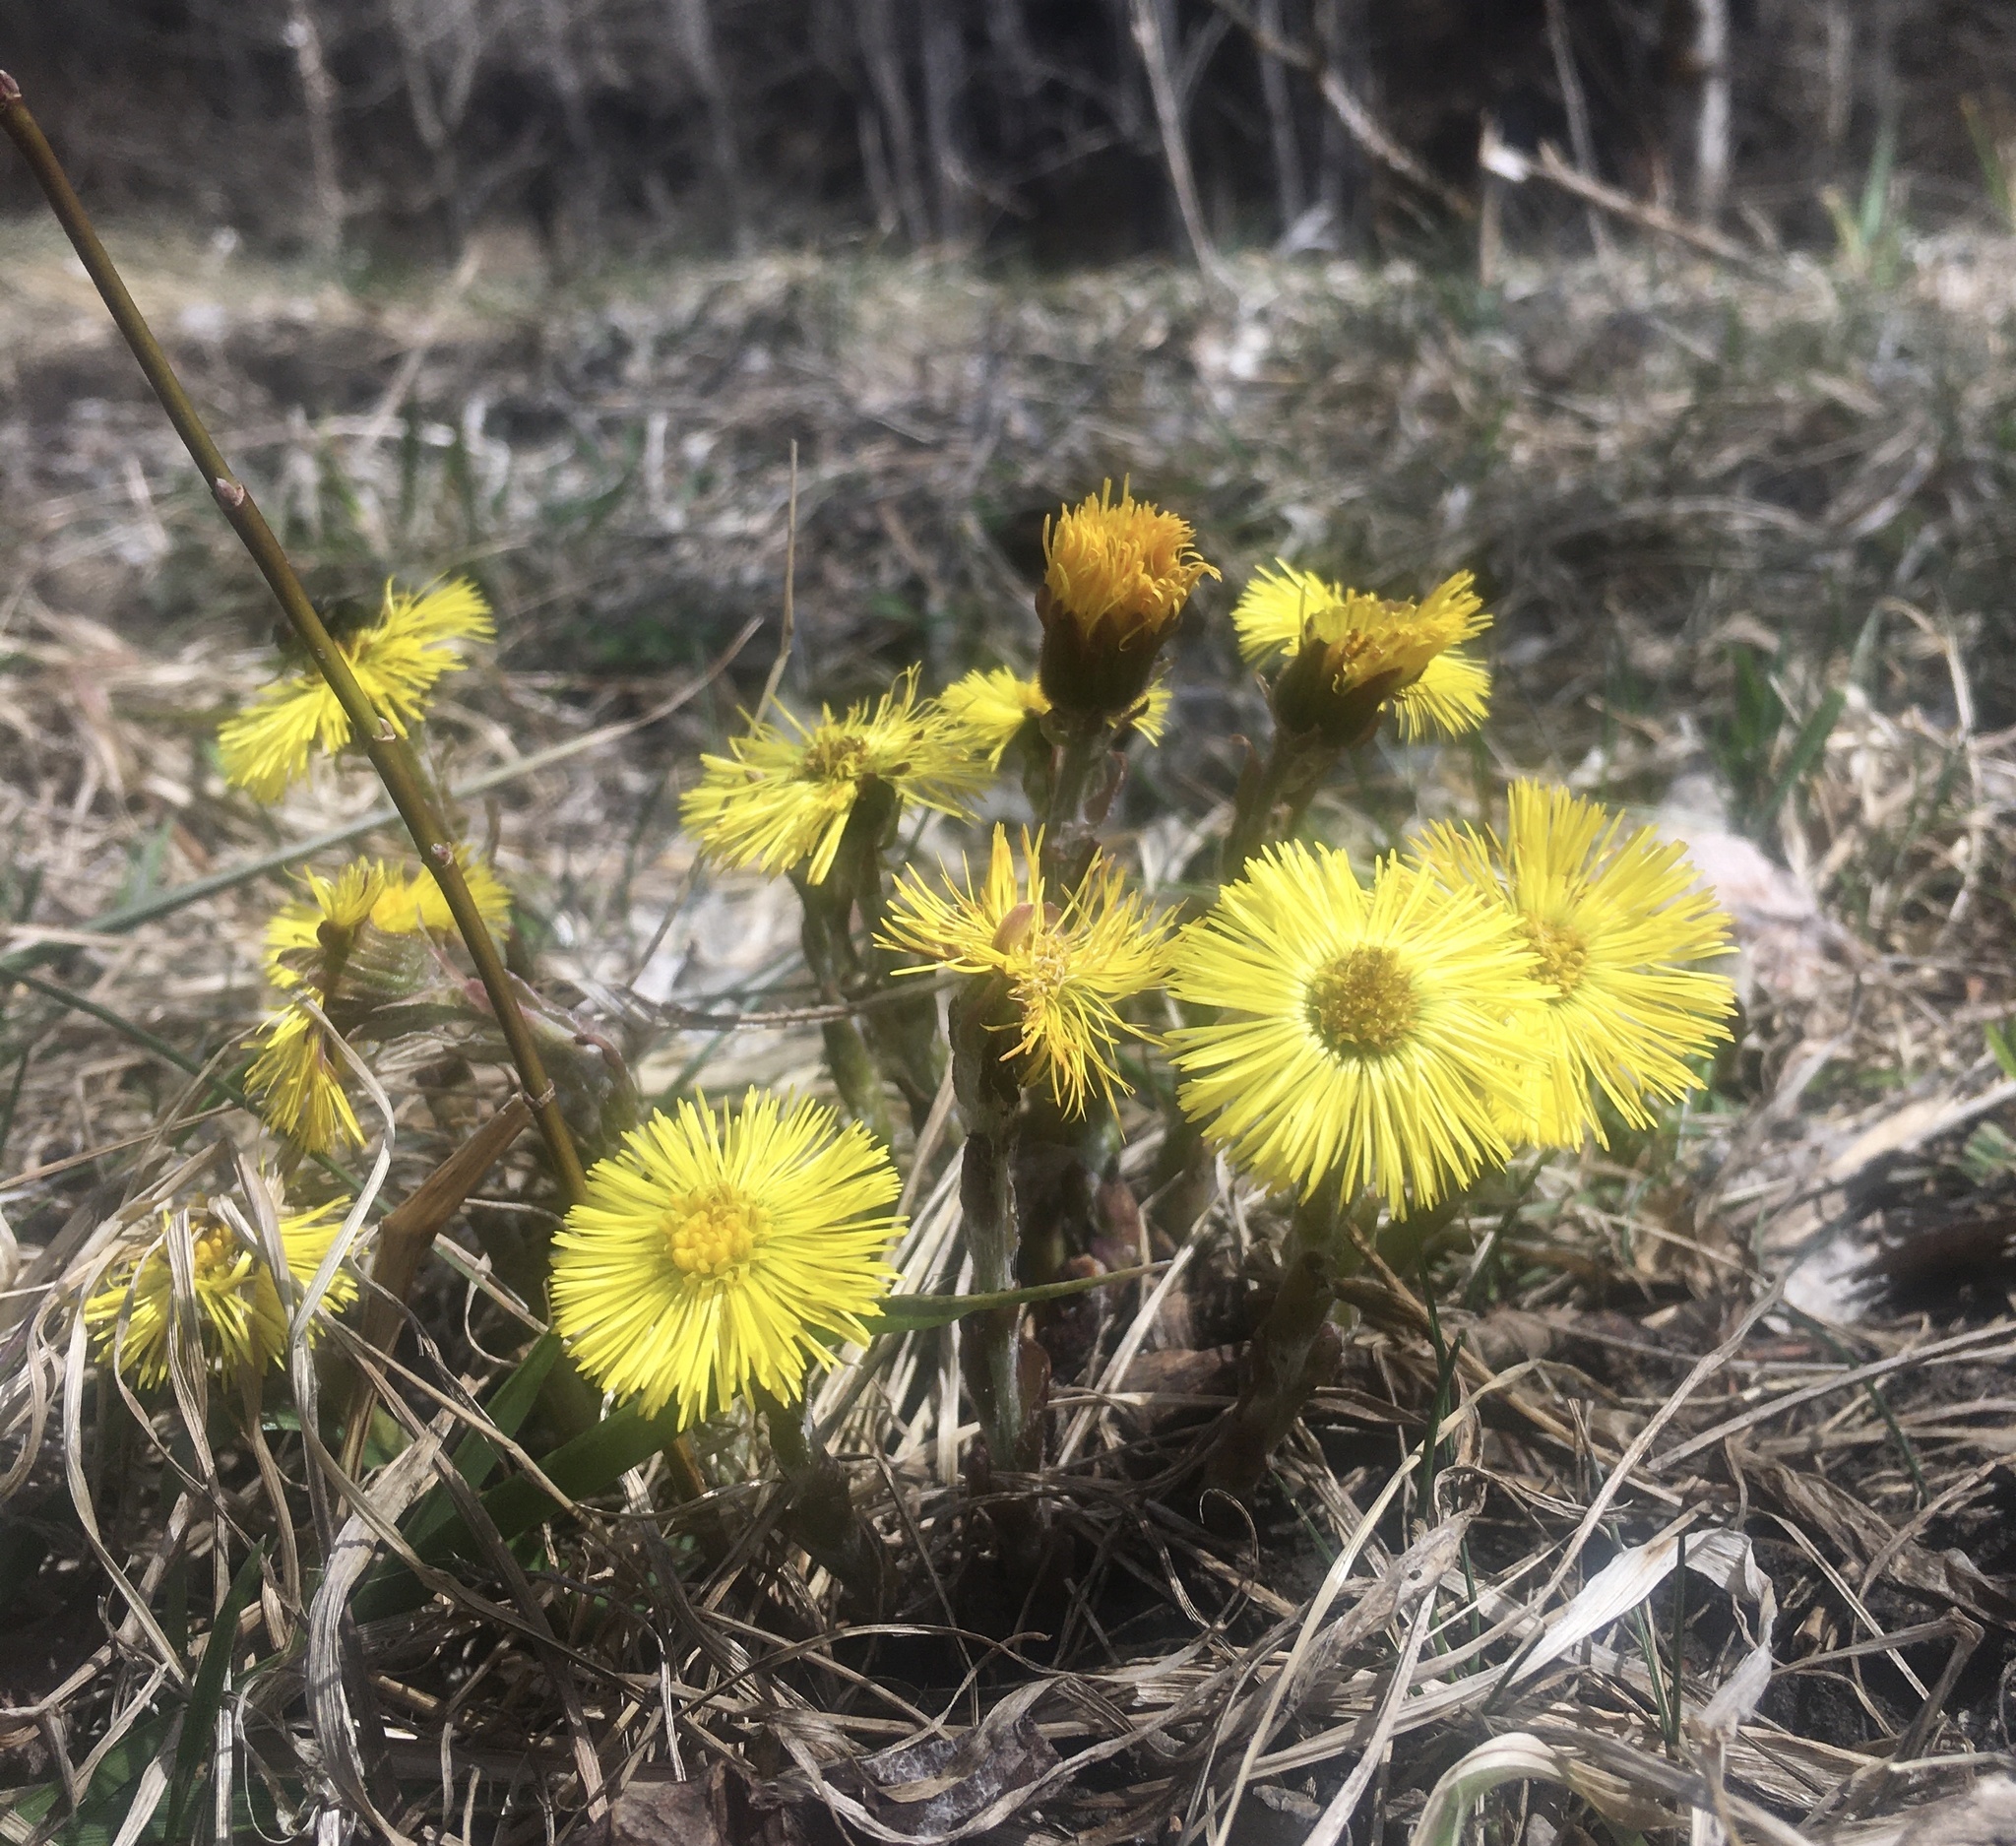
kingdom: Plantae
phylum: Tracheophyta
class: Magnoliopsida
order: Asterales
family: Asteraceae
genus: Tussilago
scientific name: Tussilago farfara
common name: Coltsfoot
